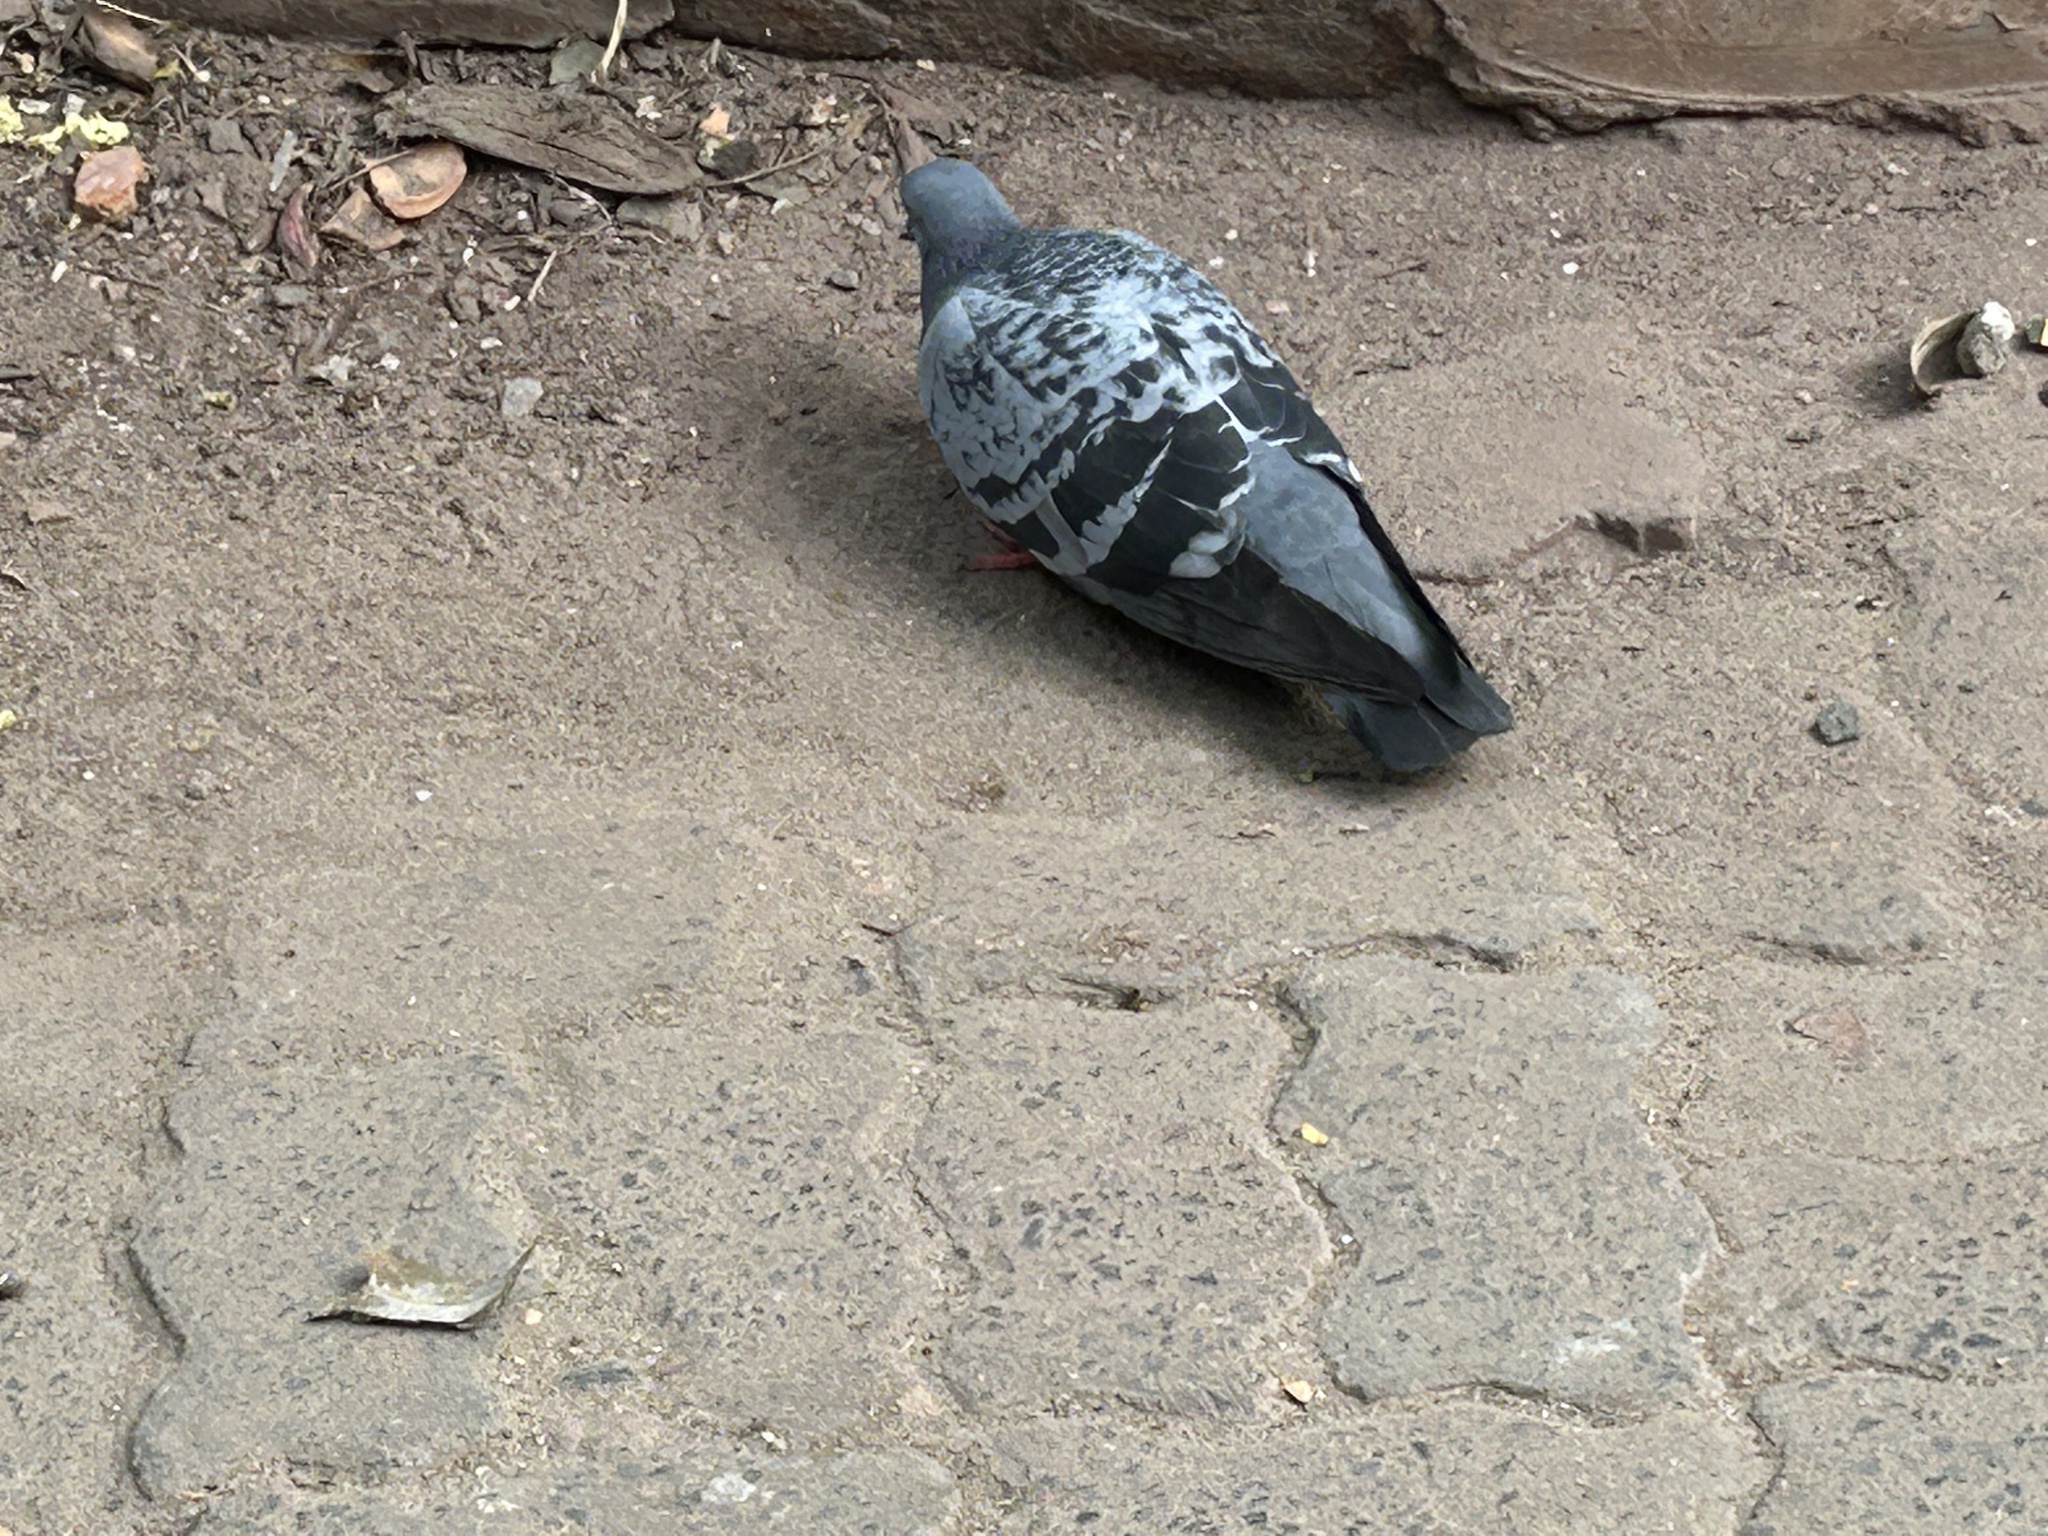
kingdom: Animalia
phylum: Chordata
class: Aves
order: Columbiformes
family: Columbidae
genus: Columba
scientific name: Columba livia
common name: Rock pigeon
